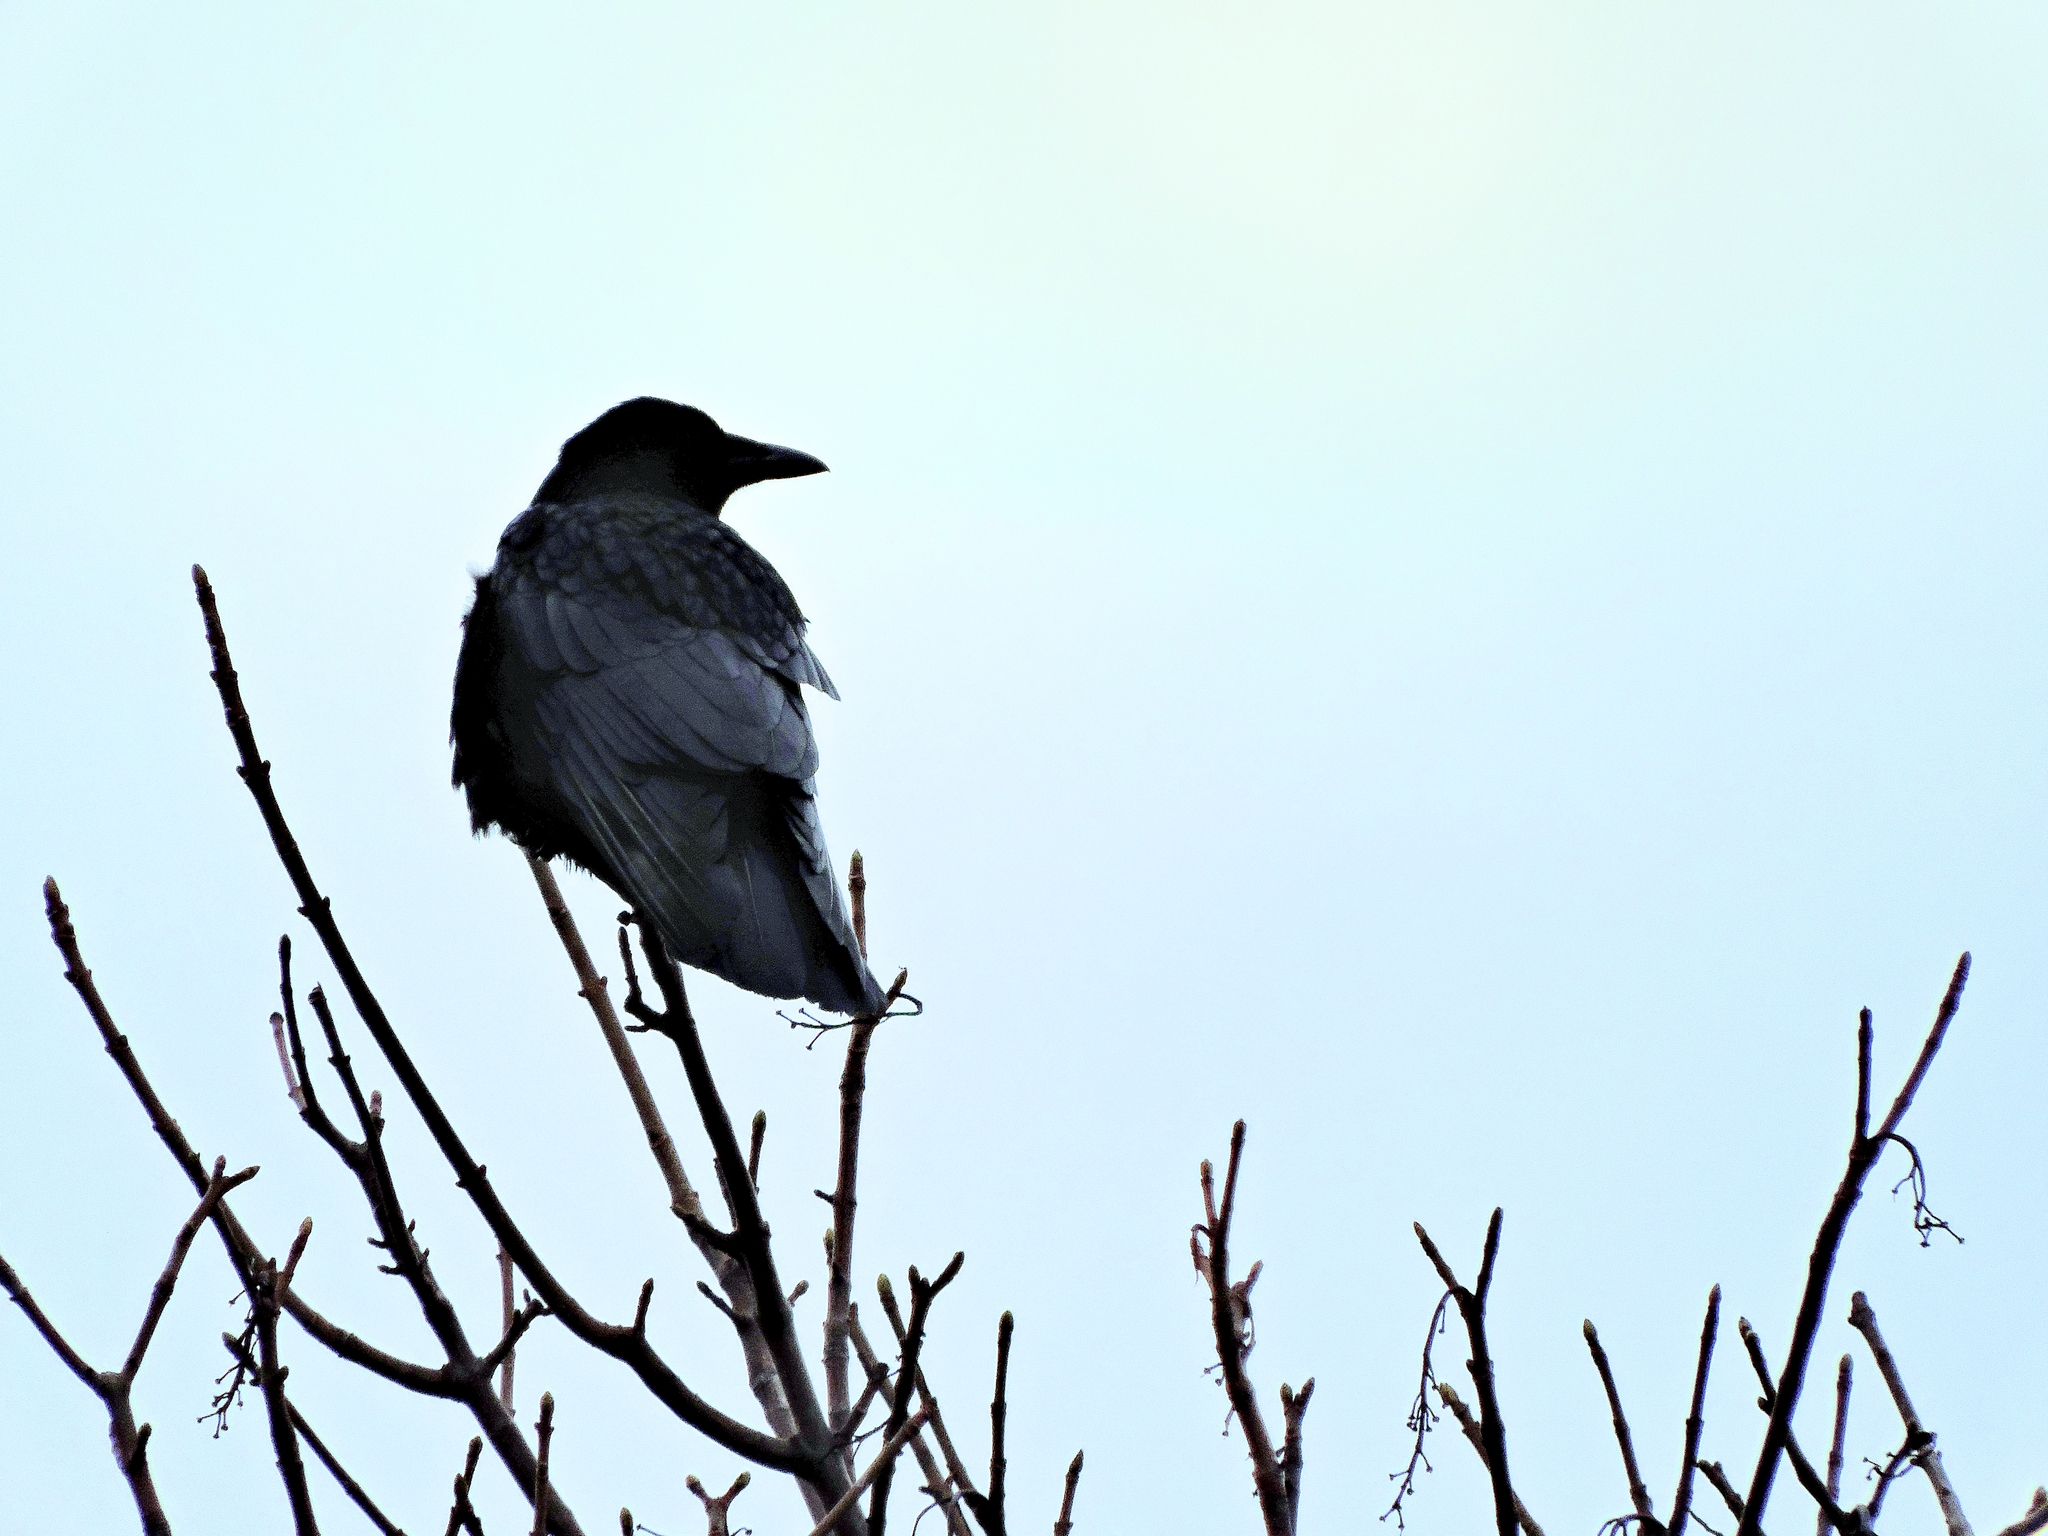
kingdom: Animalia
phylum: Chordata
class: Aves
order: Passeriformes
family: Corvidae
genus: Corvus
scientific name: Corvus corone
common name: Carrion crow
